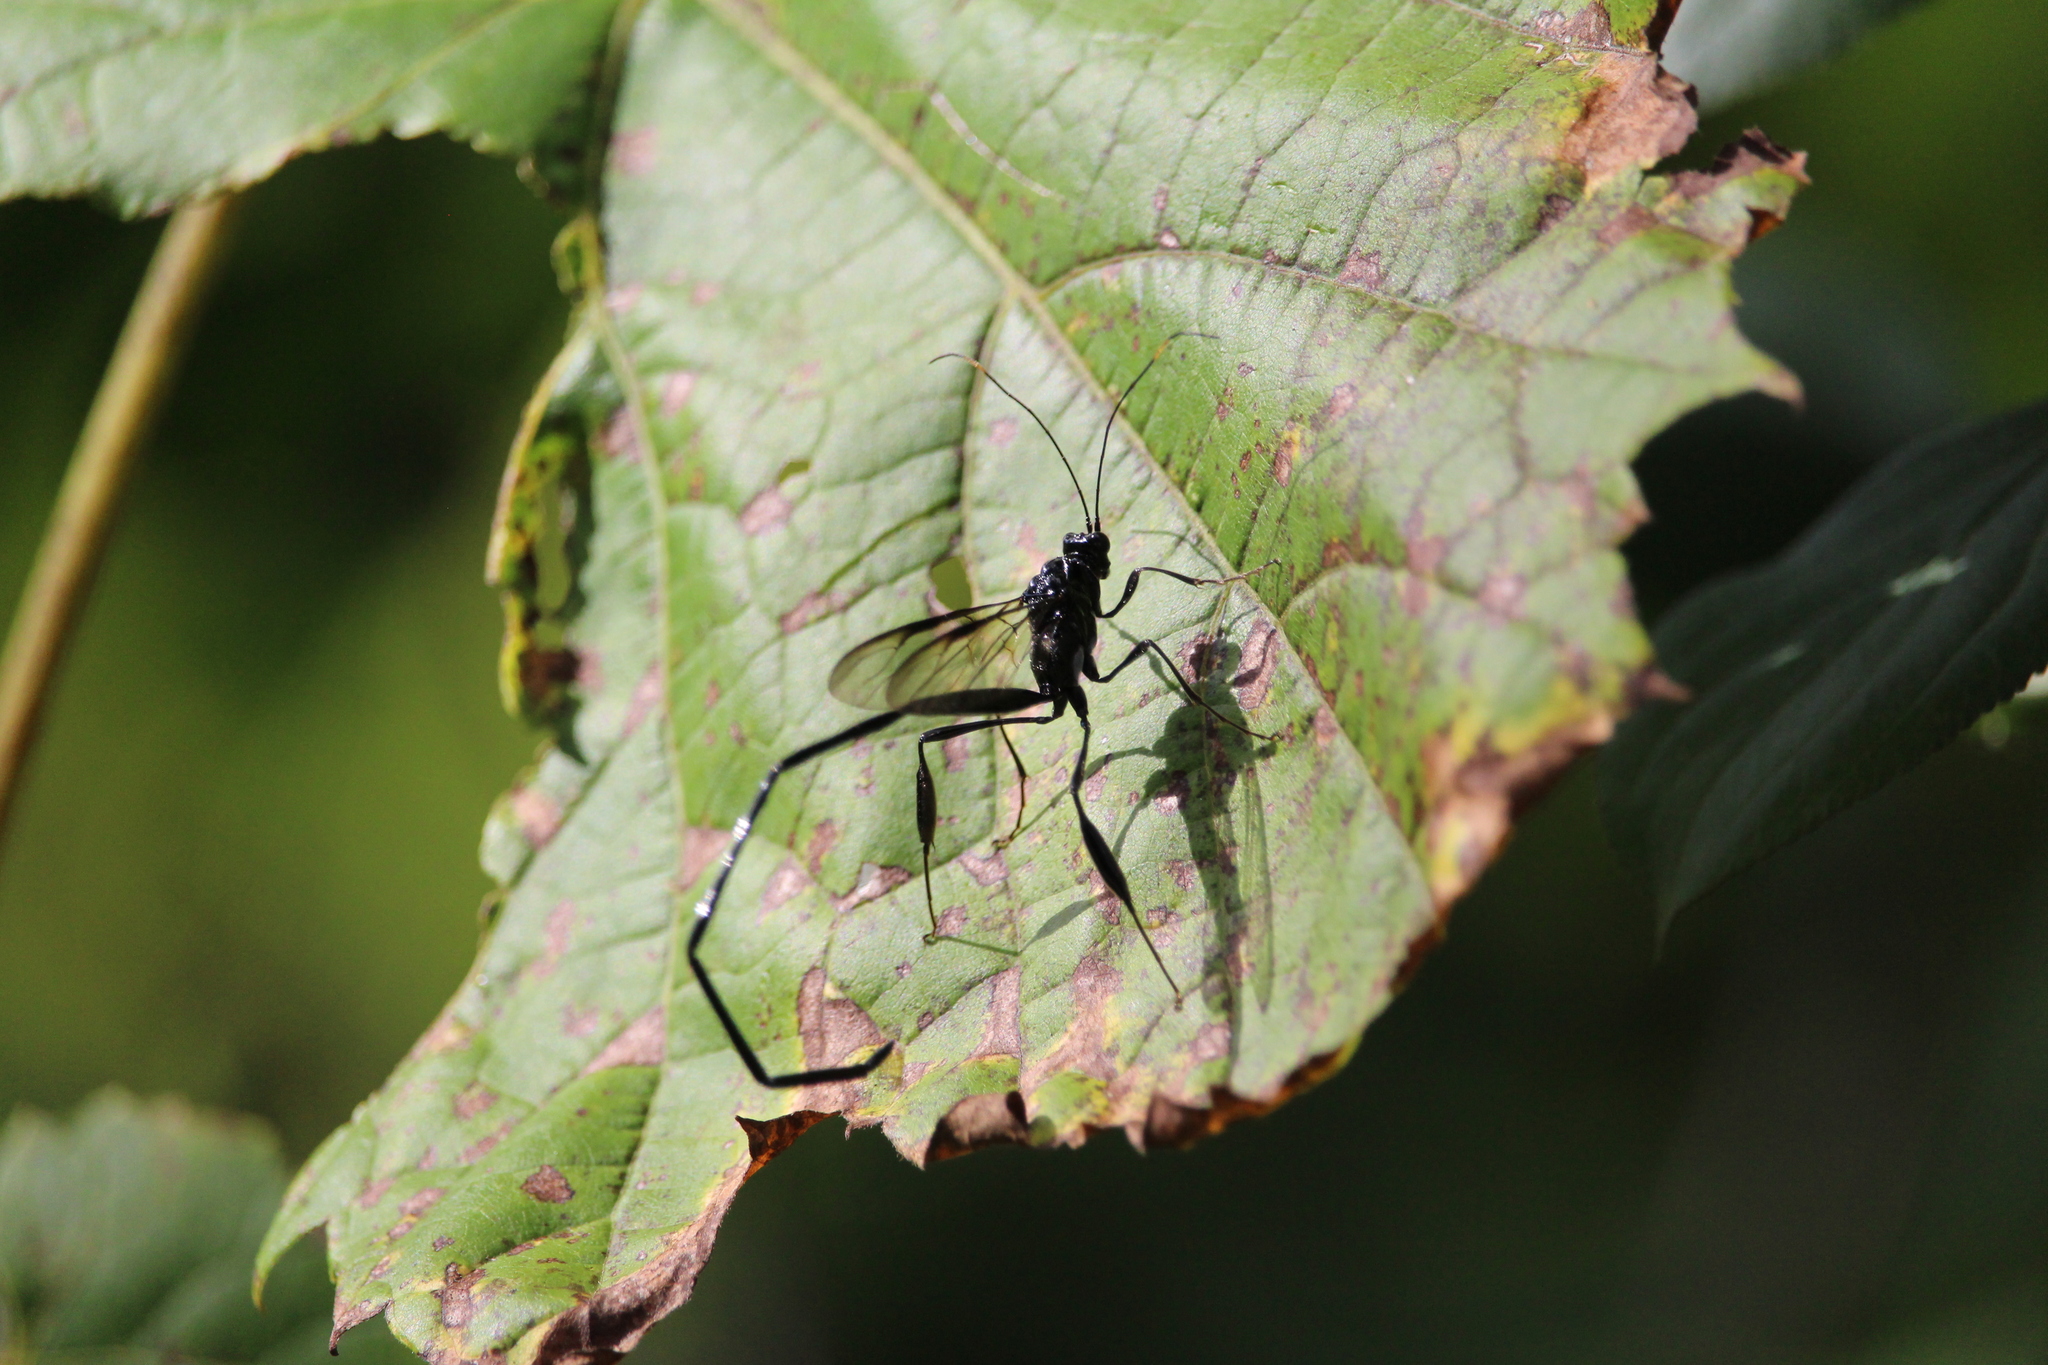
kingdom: Animalia
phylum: Arthropoda
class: Insecta
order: Hymenoptera
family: Pelecinidae
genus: Pelecinus
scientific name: Pelecinus polyturator
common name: American pelecinid wasp
